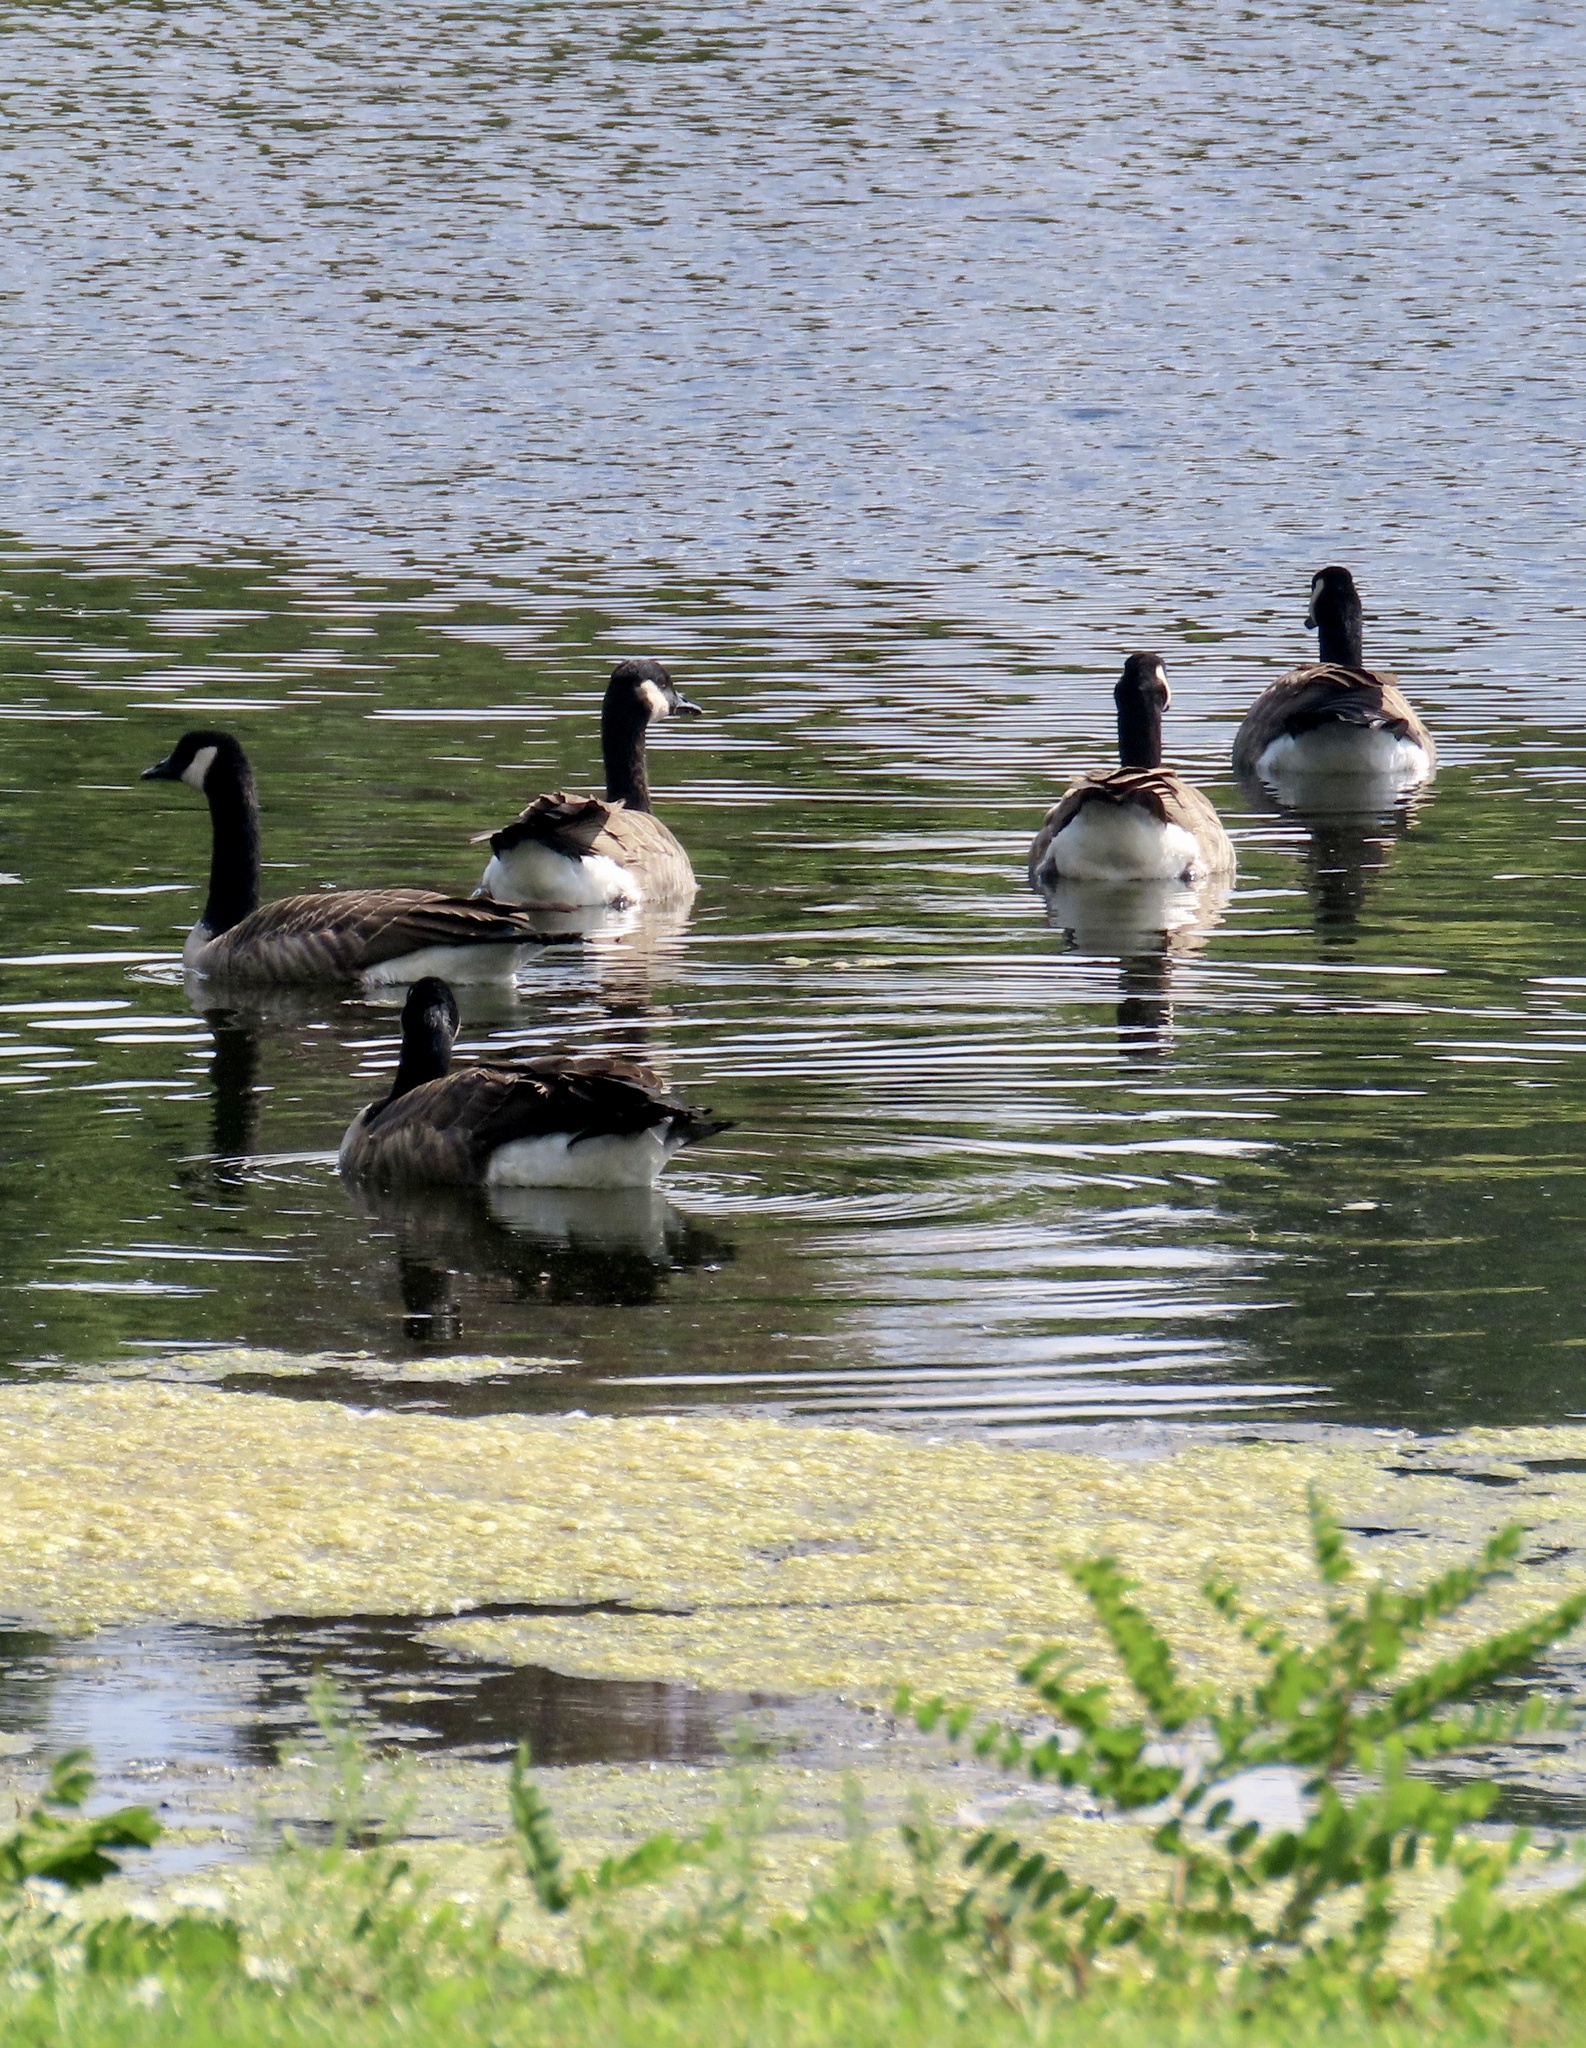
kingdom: Animalia
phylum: Chordata
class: Aves
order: Anseriformes
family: Anatidae
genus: Branta
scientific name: Branta canadensis
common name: Canada goose
